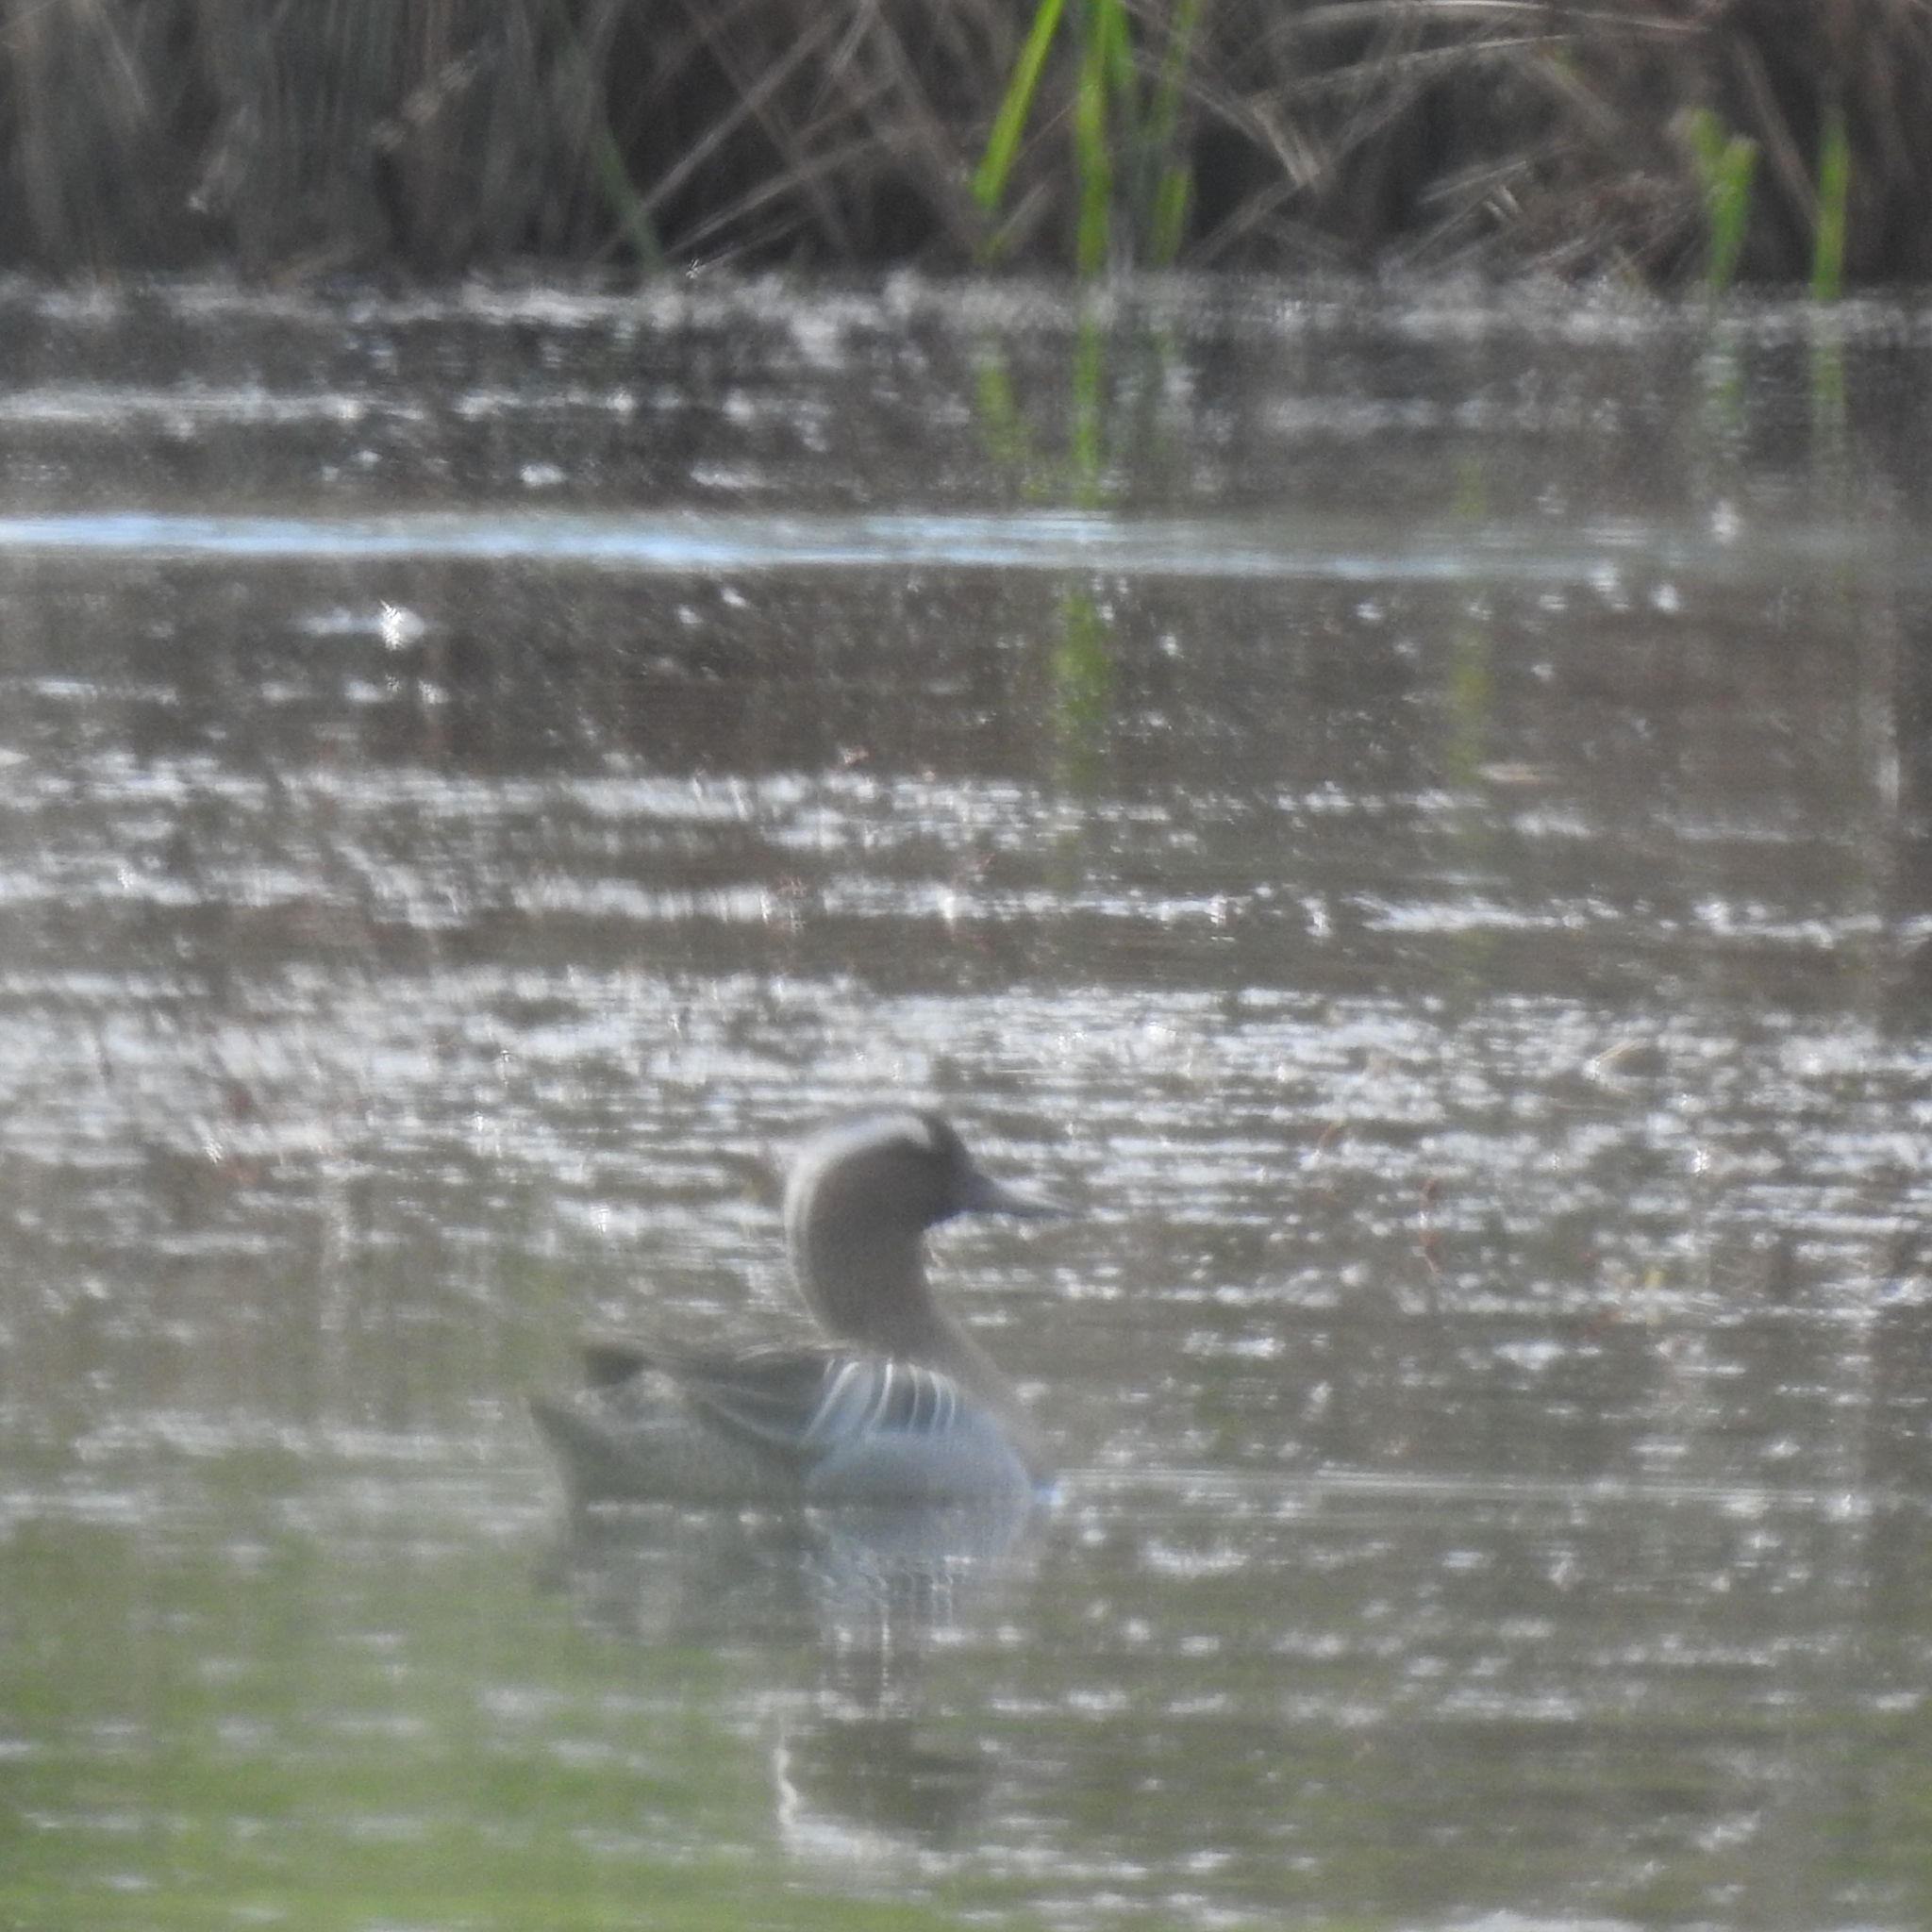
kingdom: Animalia
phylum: Chordata
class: Aves
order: Anseriformes
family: Anatidae
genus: Spatula
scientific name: Spatula querquedula
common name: Garganey
